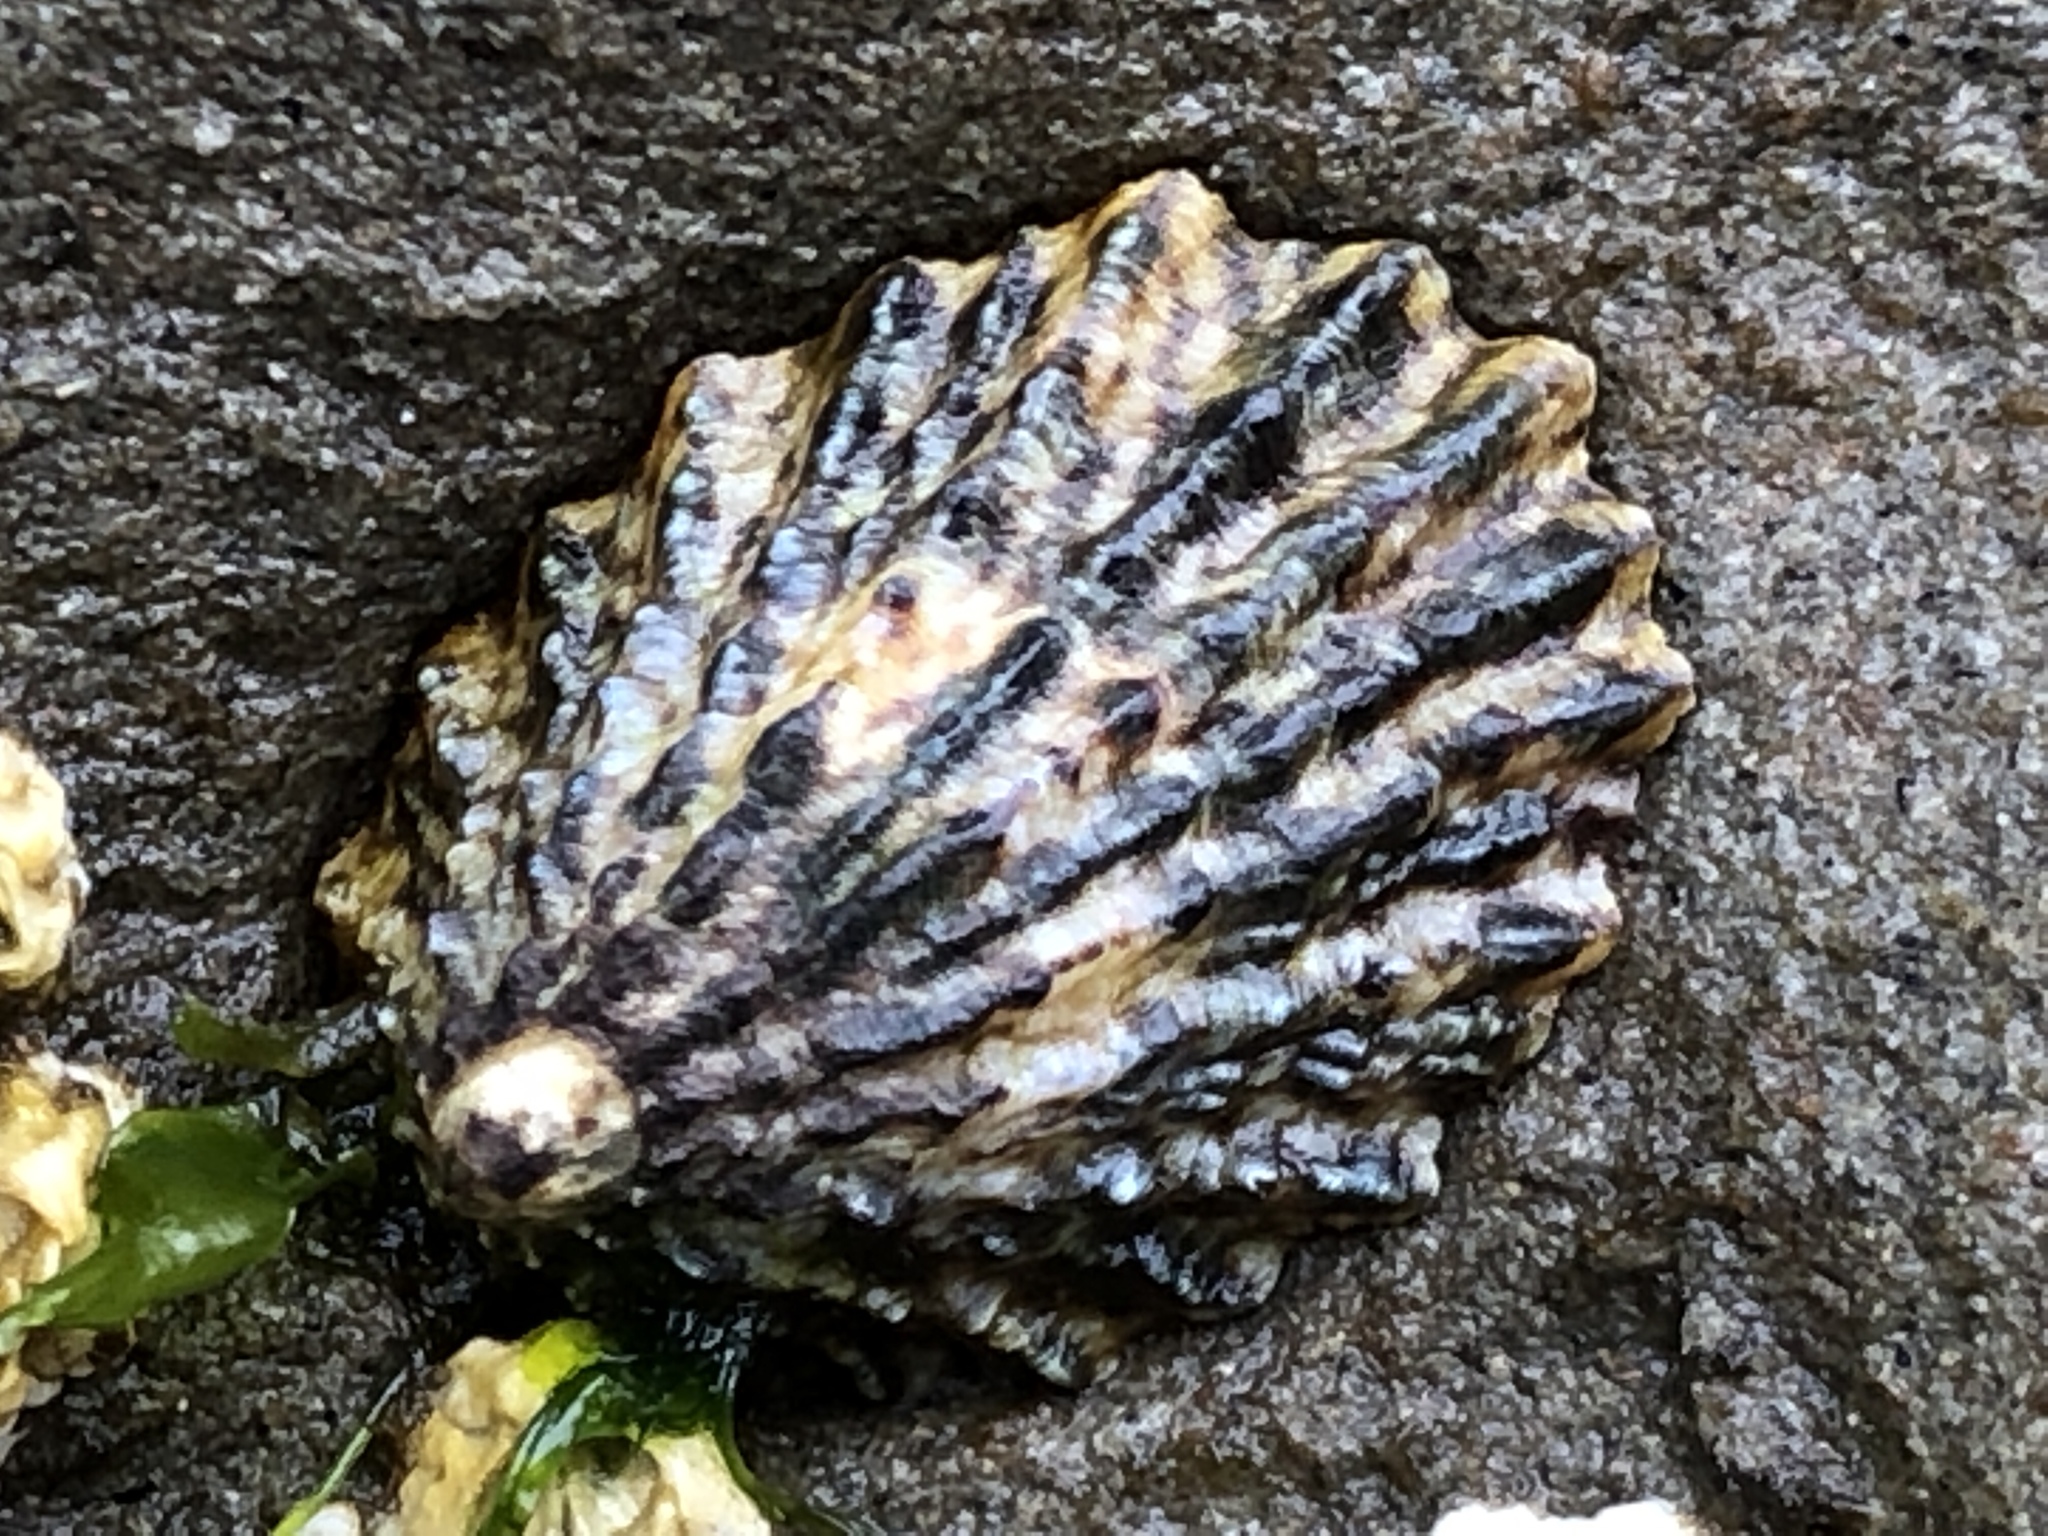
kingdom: Animalia
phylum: Mollusca
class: Gastropoda
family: Lottiidae
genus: Lottia
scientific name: Lottia scabra
